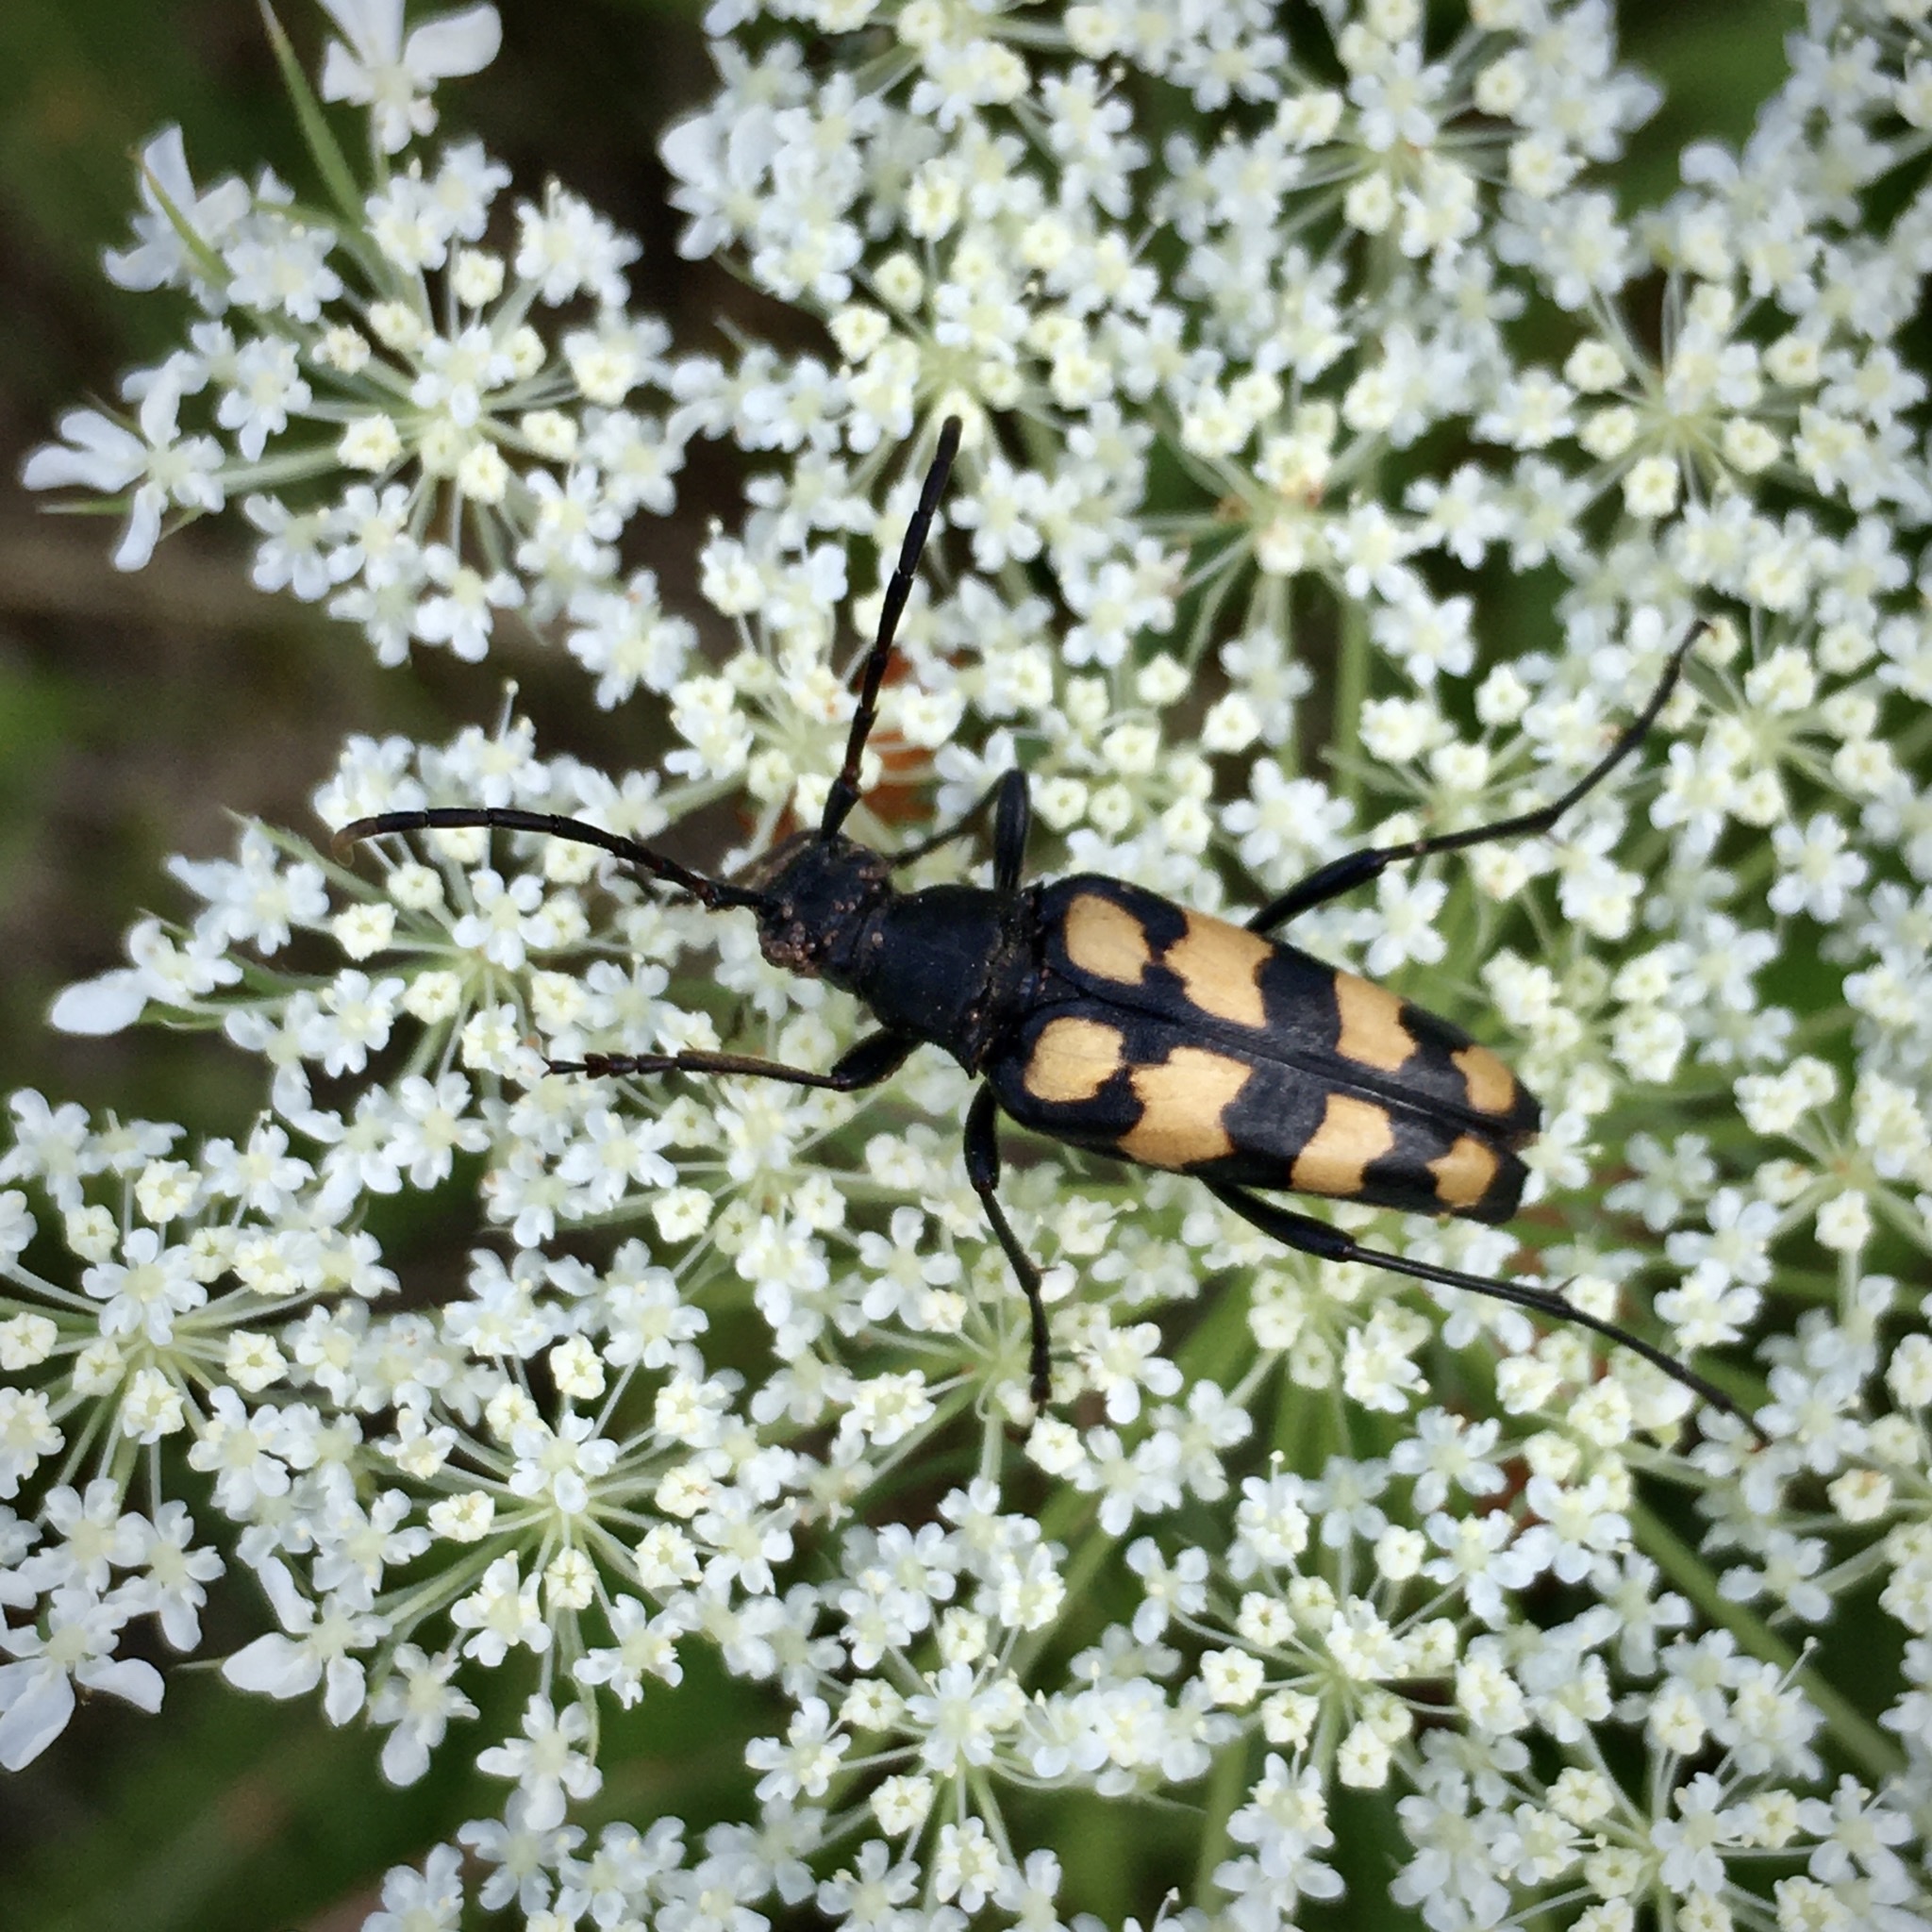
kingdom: Animalia
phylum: Arthropoda
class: Insecta
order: Coleoptera
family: Cerambycidae
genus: Leptura
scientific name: Leptura quadrifasciata
